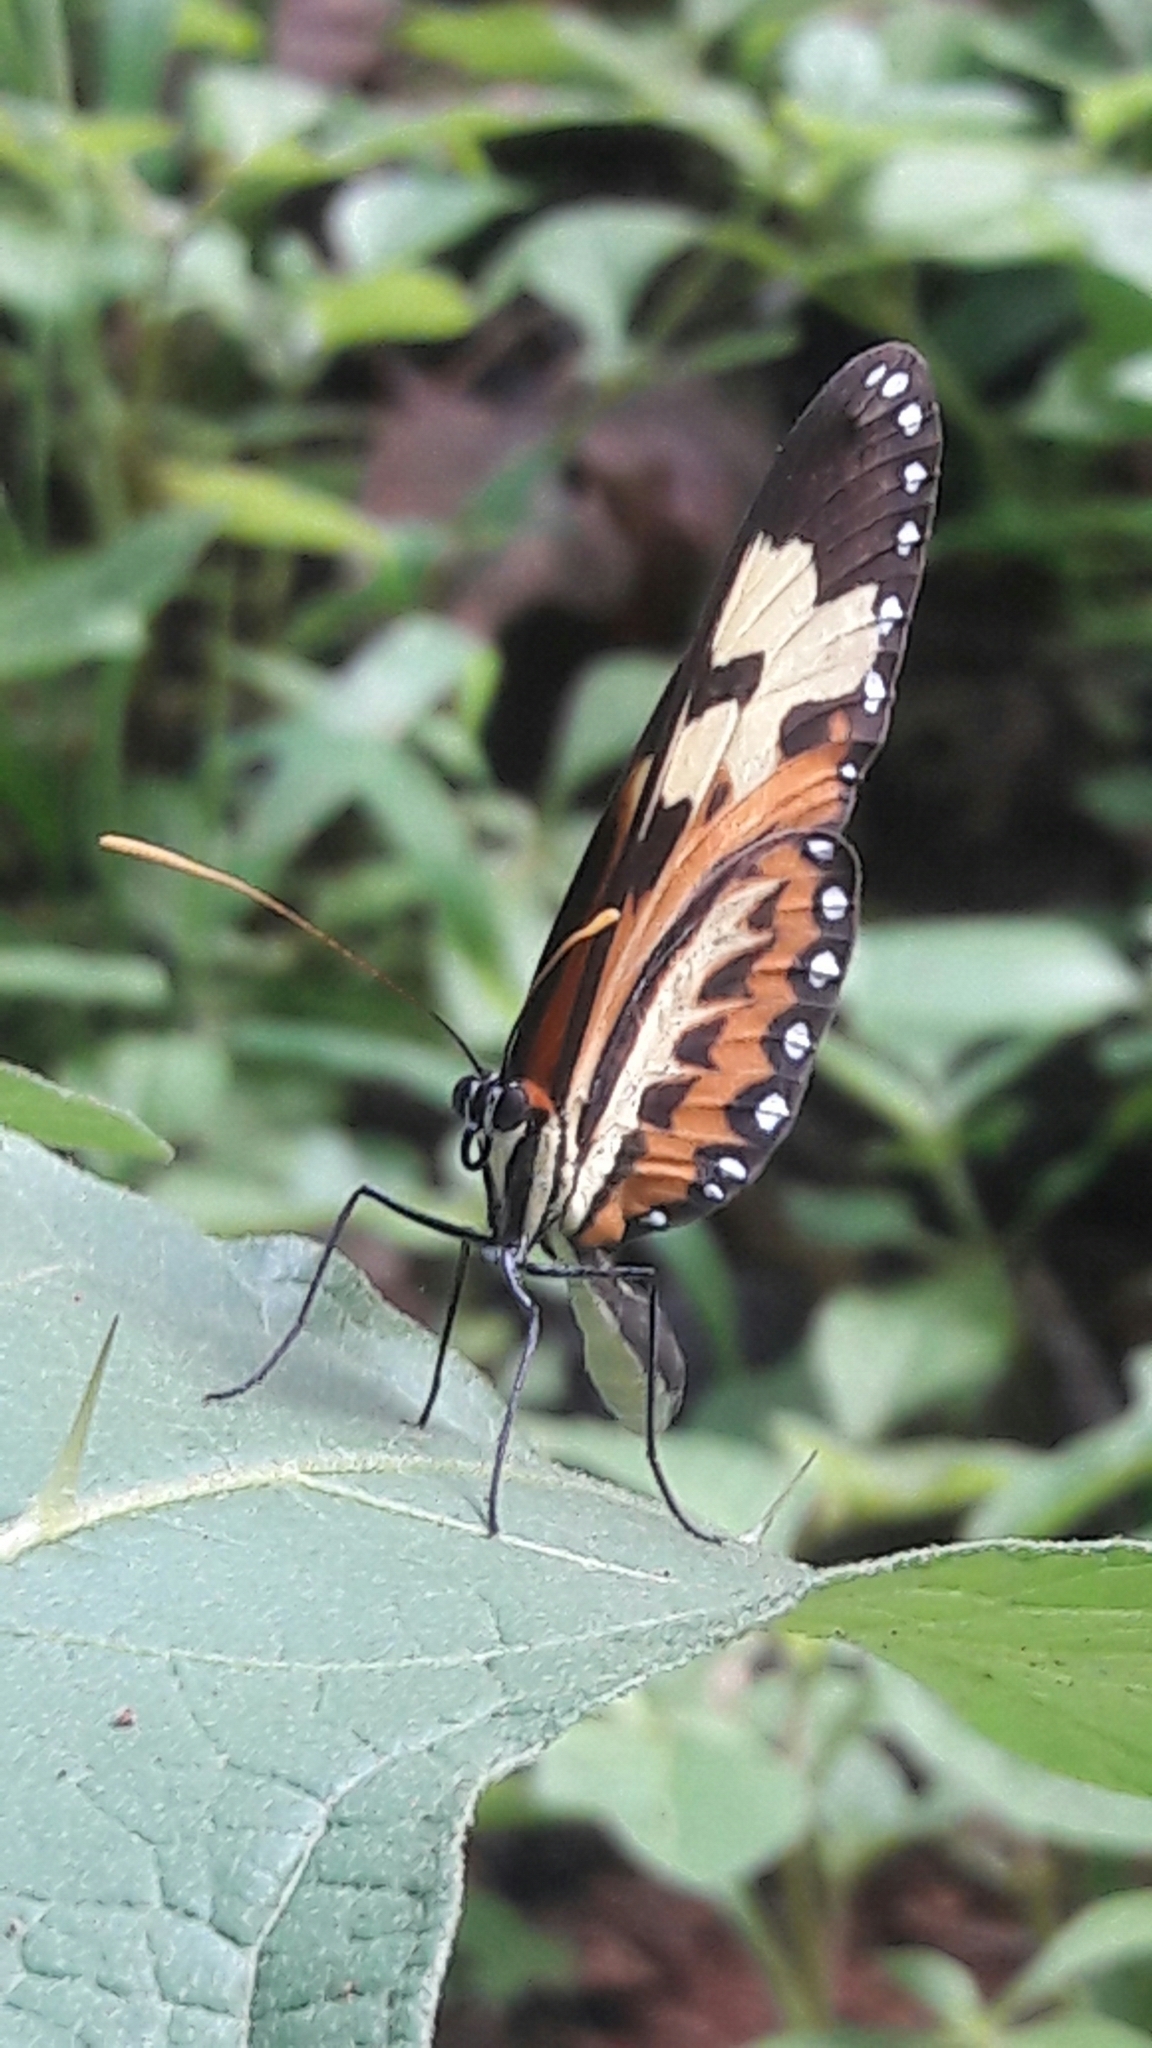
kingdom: Animalia
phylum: Arthropoda
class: Insecta
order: Lepidoptera
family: Nymphalidae
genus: Mechanitis
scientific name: Mechanitis polymnia
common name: Disturbed tigerwing
